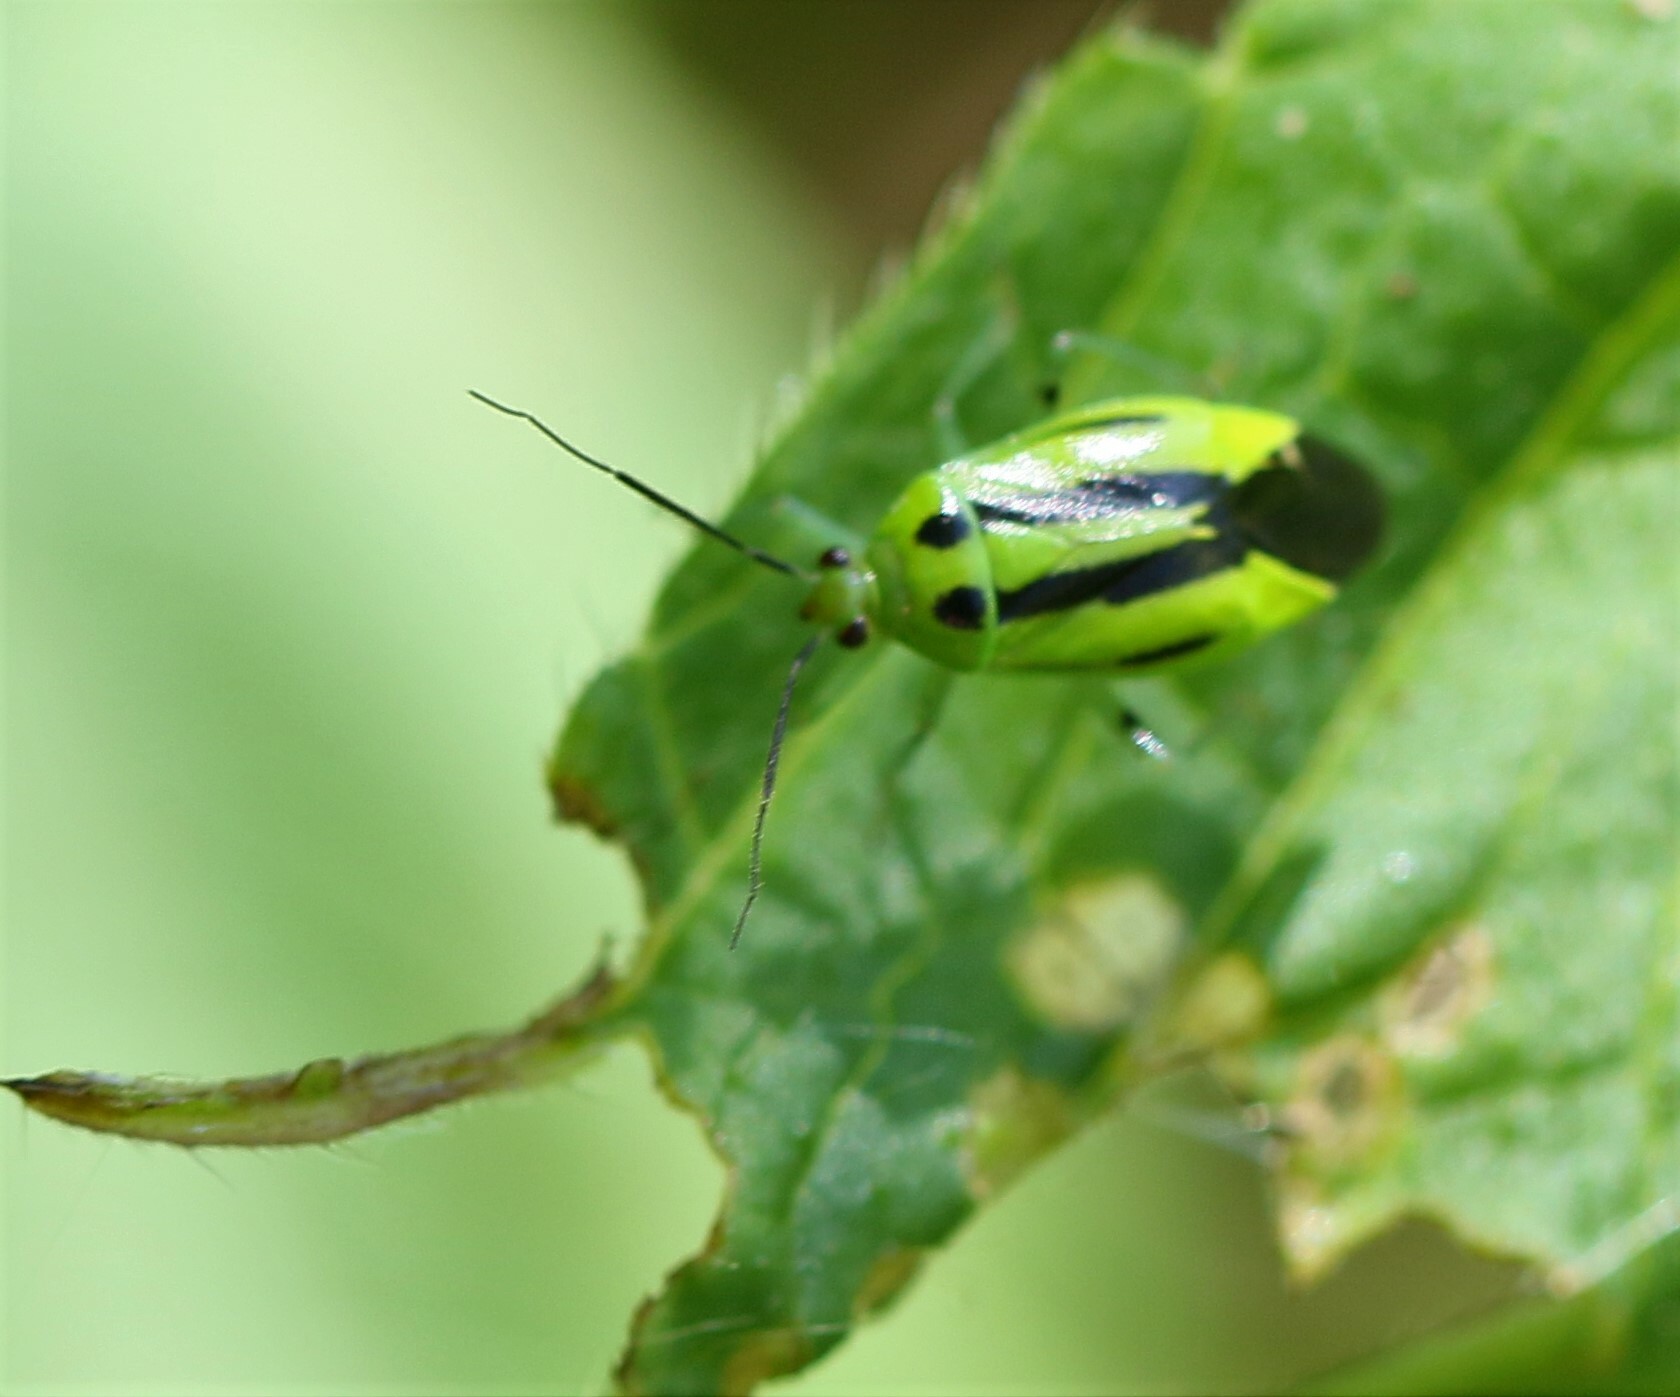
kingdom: Animalia
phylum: Arthropoda
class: Insecta
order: Hemiptera
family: Miridae
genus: Poecilocapsus
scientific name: Poecilocapsus lineatus
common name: Four-lined plant bug
